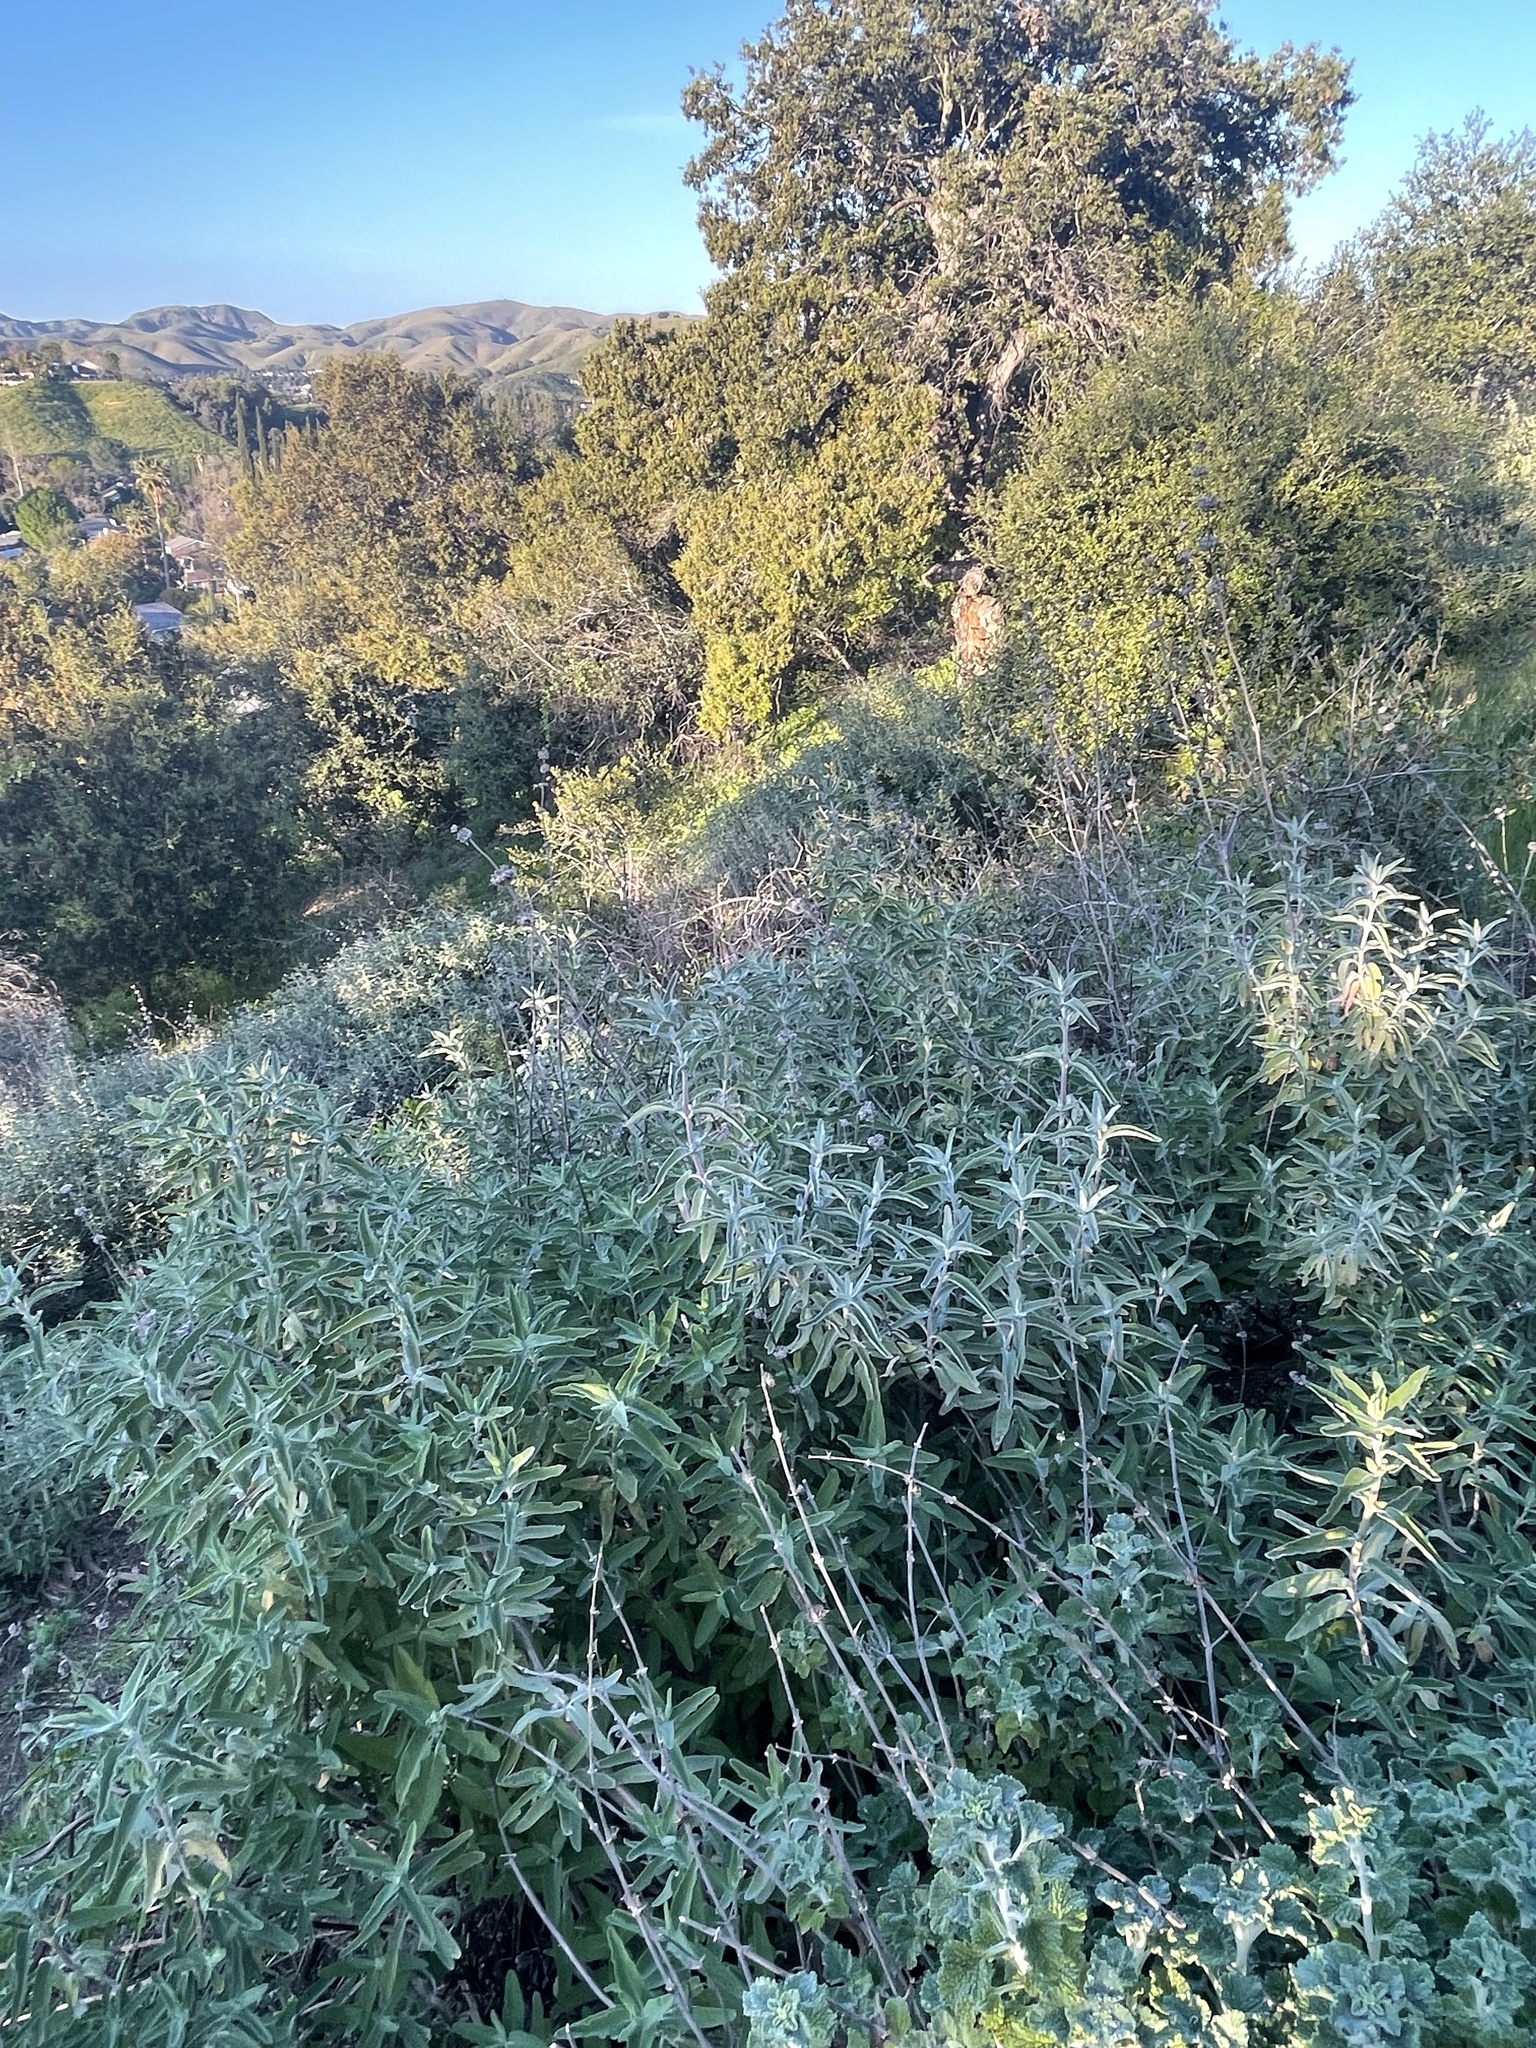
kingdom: Plantae
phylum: Tracheophyta
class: Magnoliopsida
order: Lamiales
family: Lamiaceae
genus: Salvia
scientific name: Salvia leucophylla
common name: Purple sage
